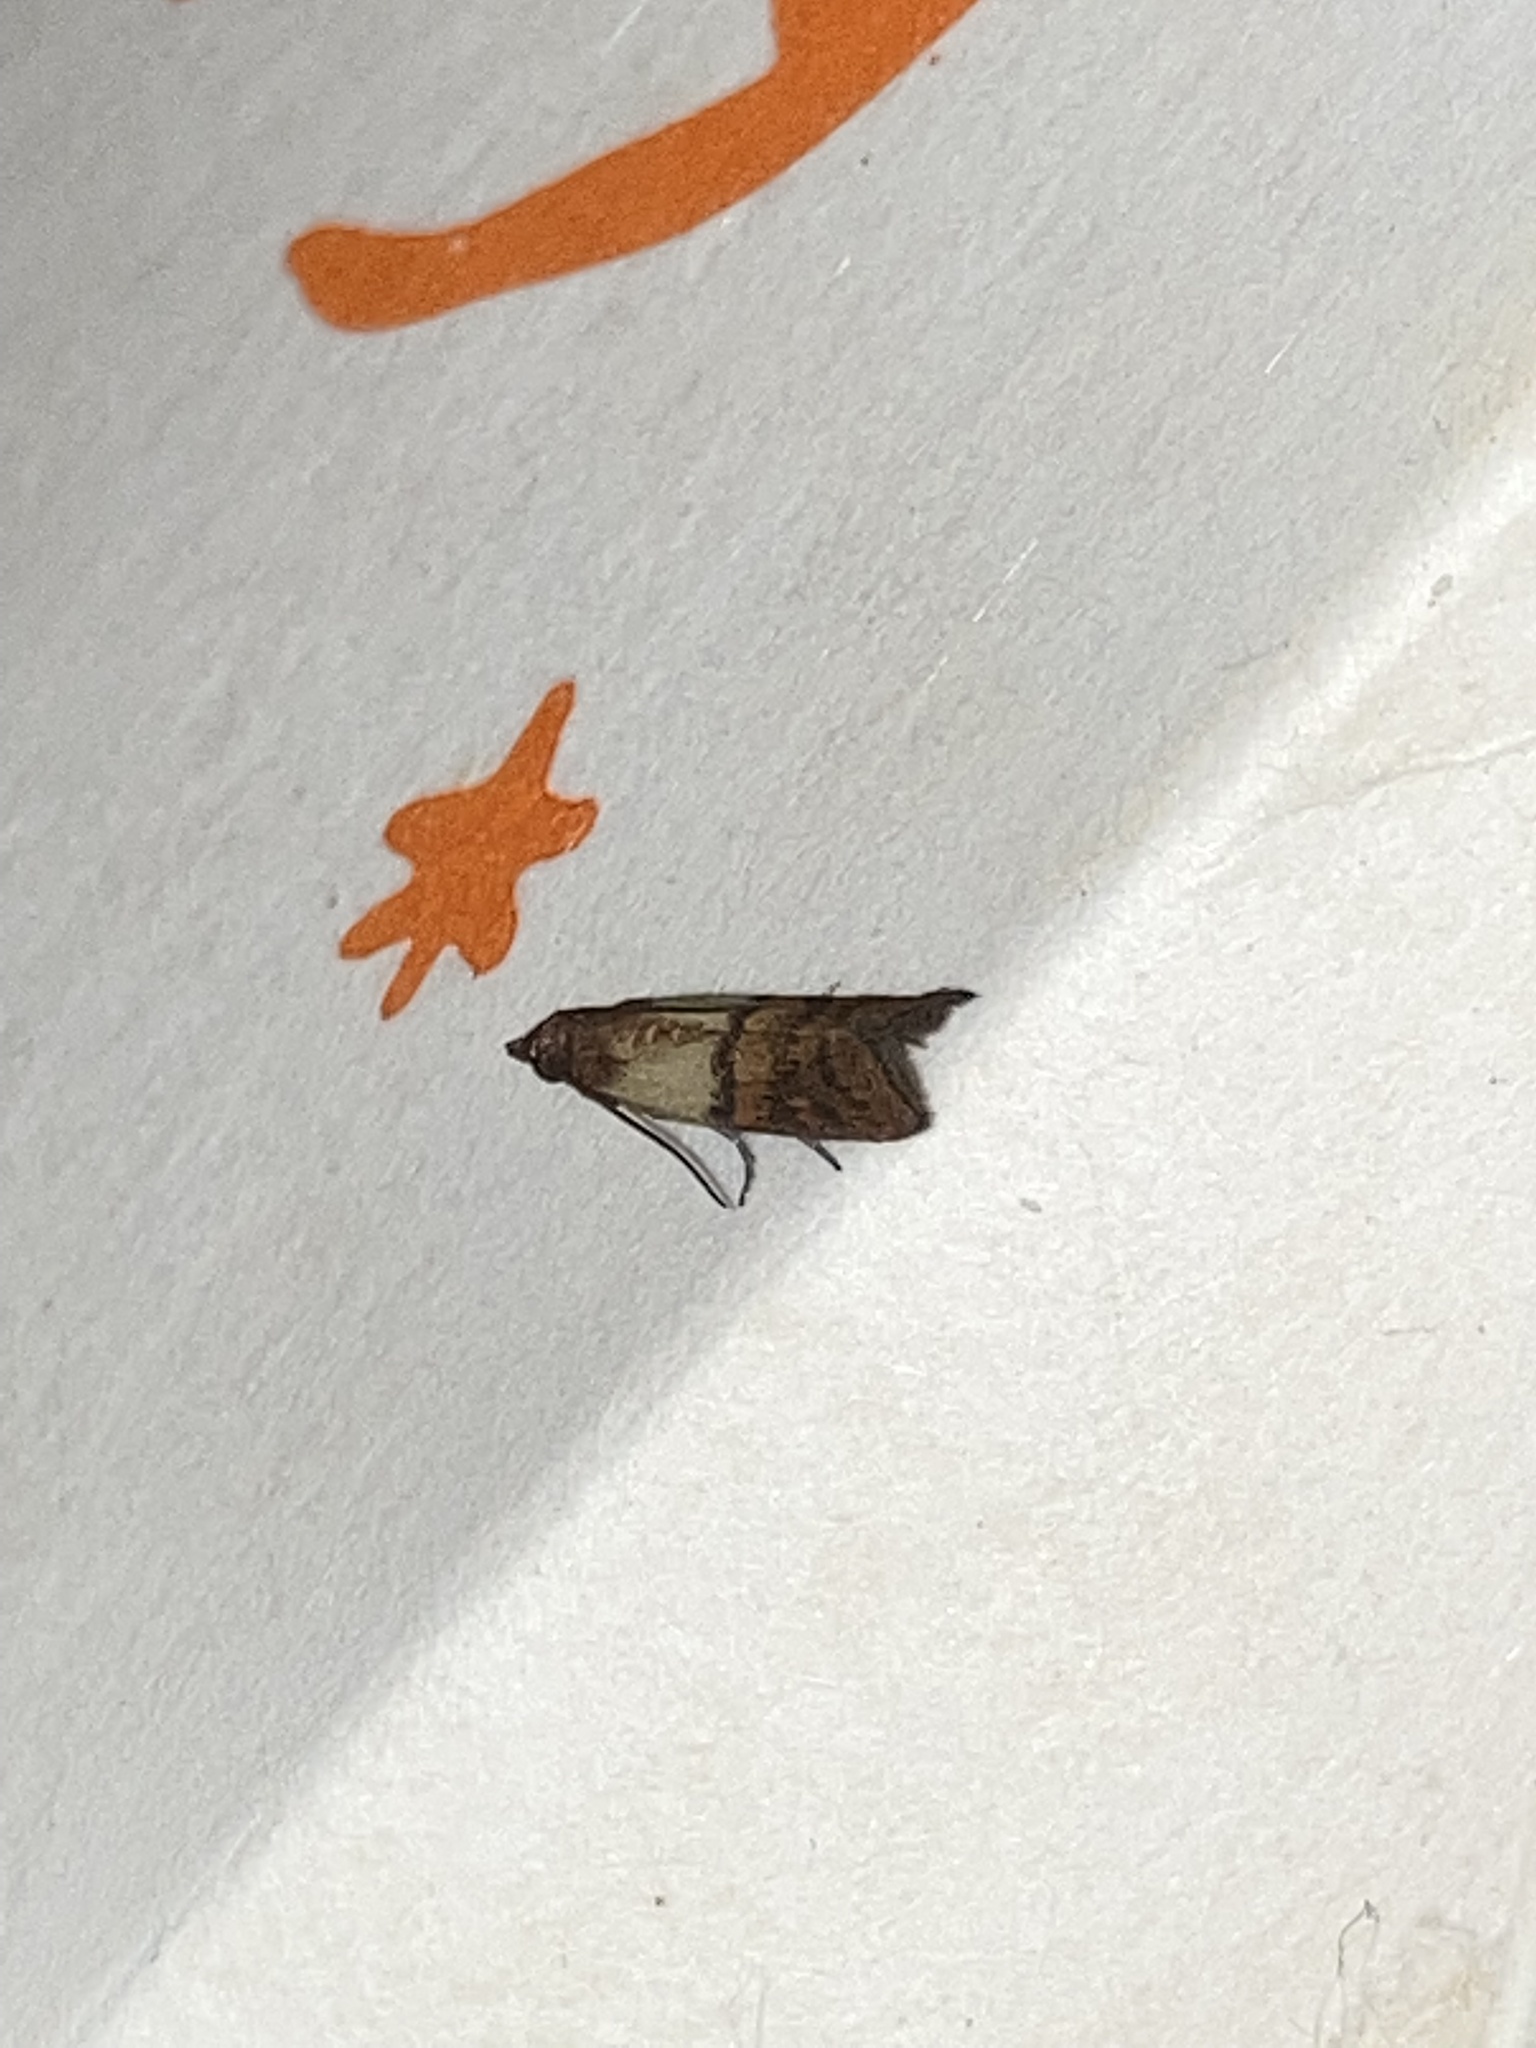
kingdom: Animalia
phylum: Arthropoda
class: Insecta
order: Lepidoptera
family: Pyralidae
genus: Plodia
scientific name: Plodia interpunctella
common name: Indian meal moth
